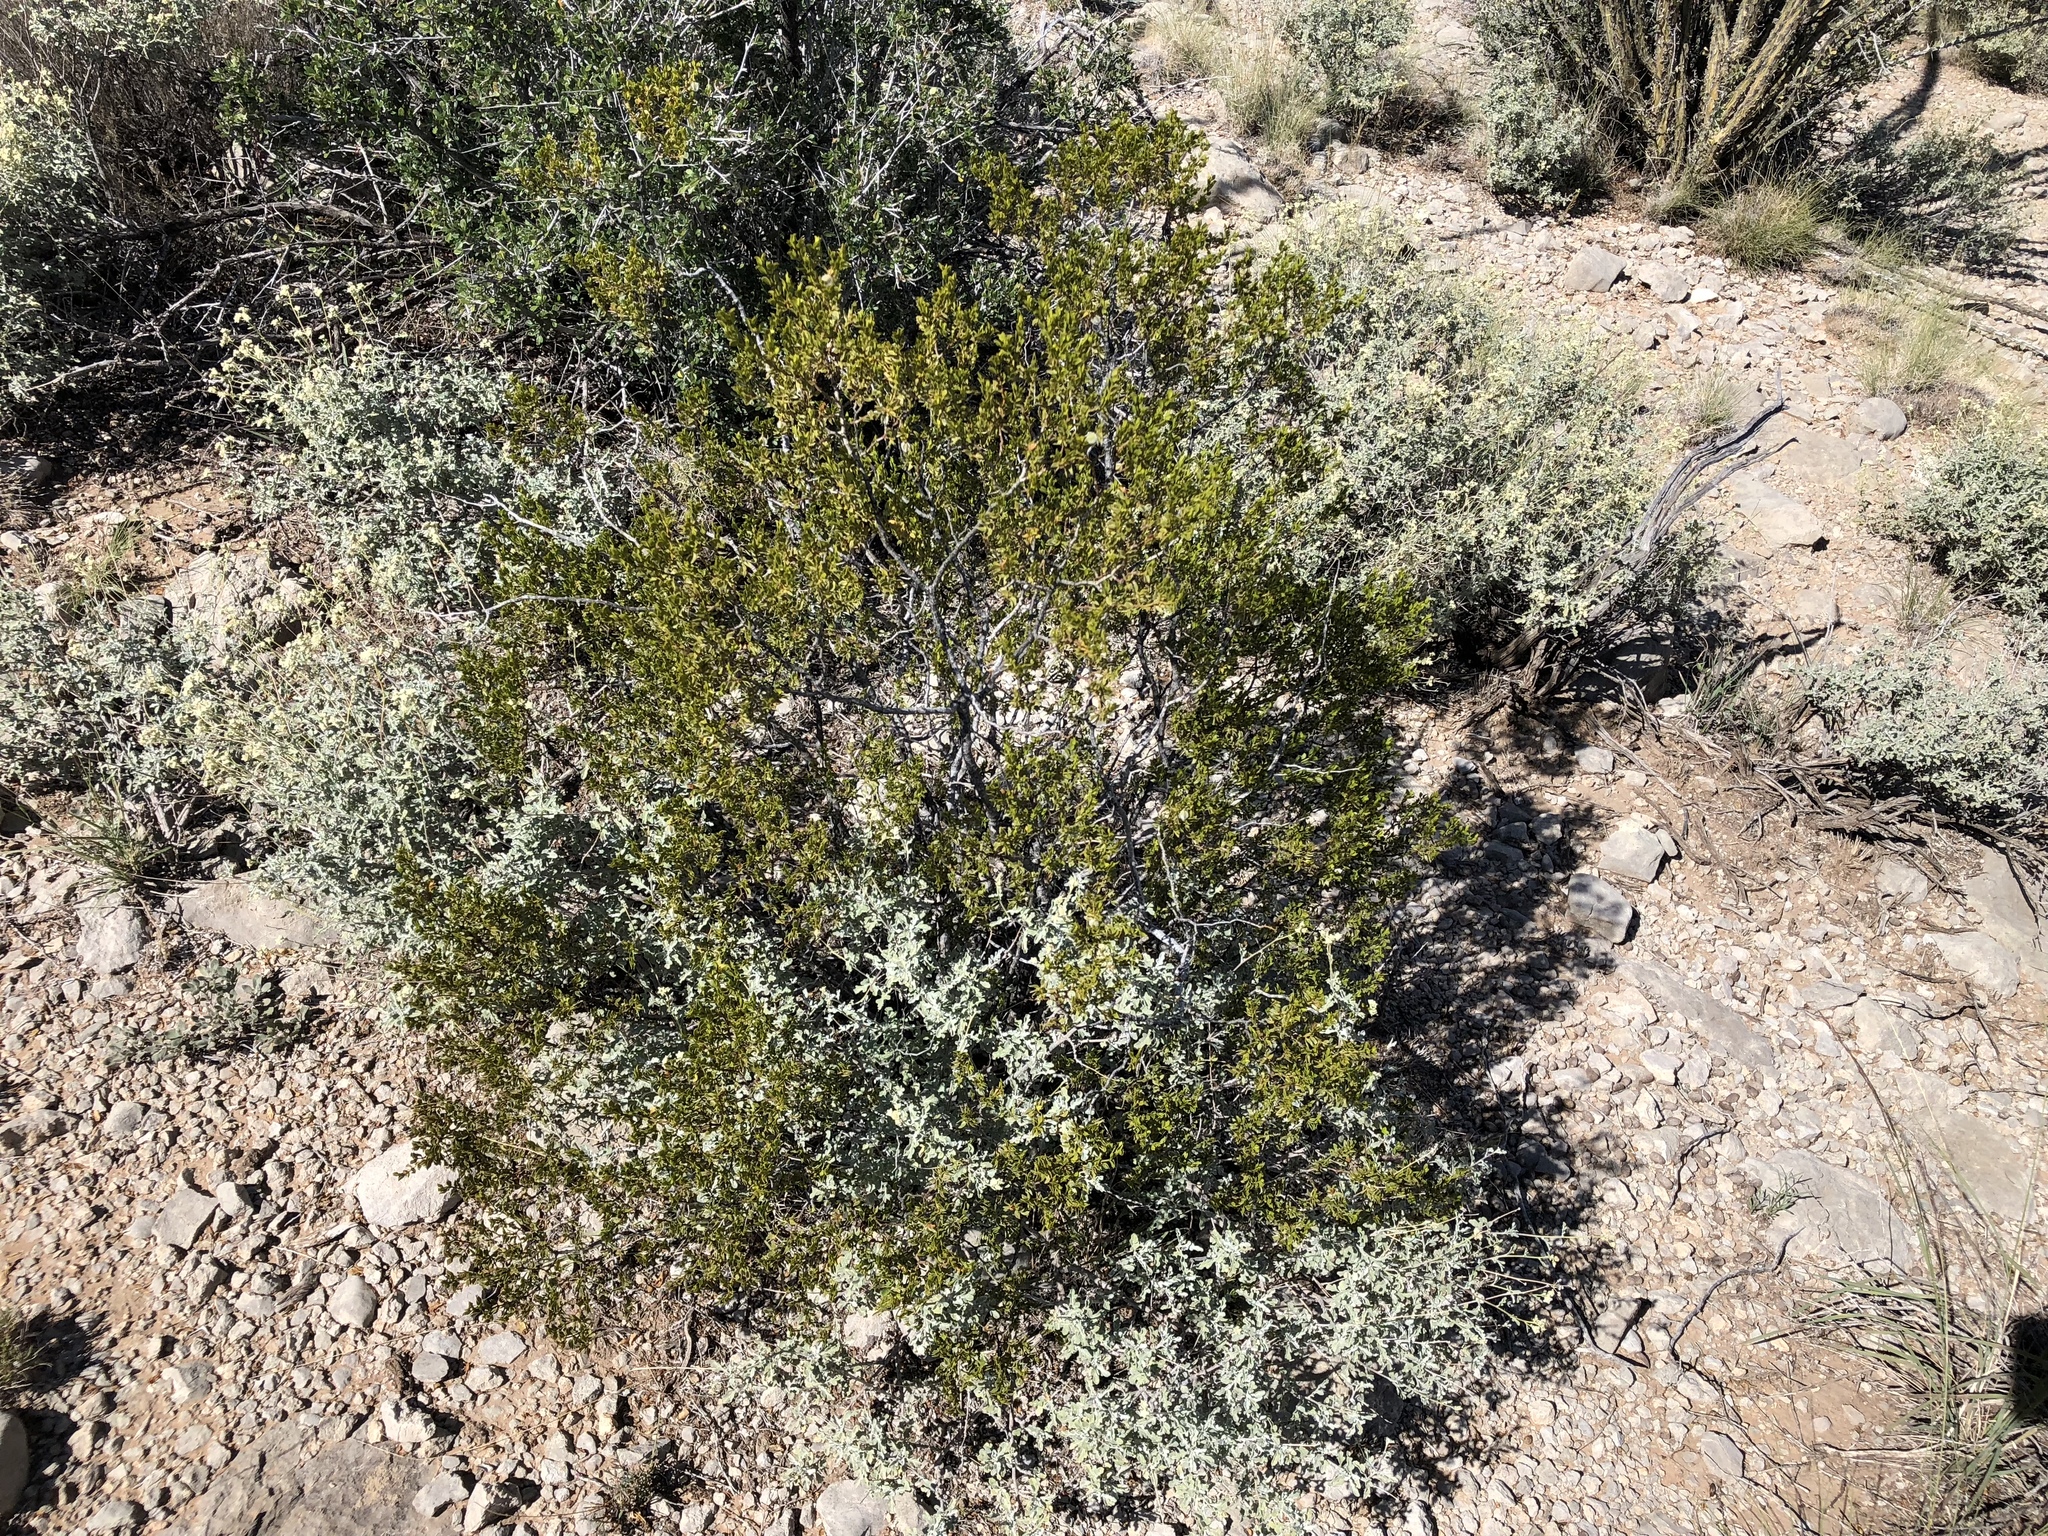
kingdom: Plantae
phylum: Tracheophyta
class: Magnoliopsida
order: Zygophyllales
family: Zygophyllaceae
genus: Larrea
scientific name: Larrea tridentata
